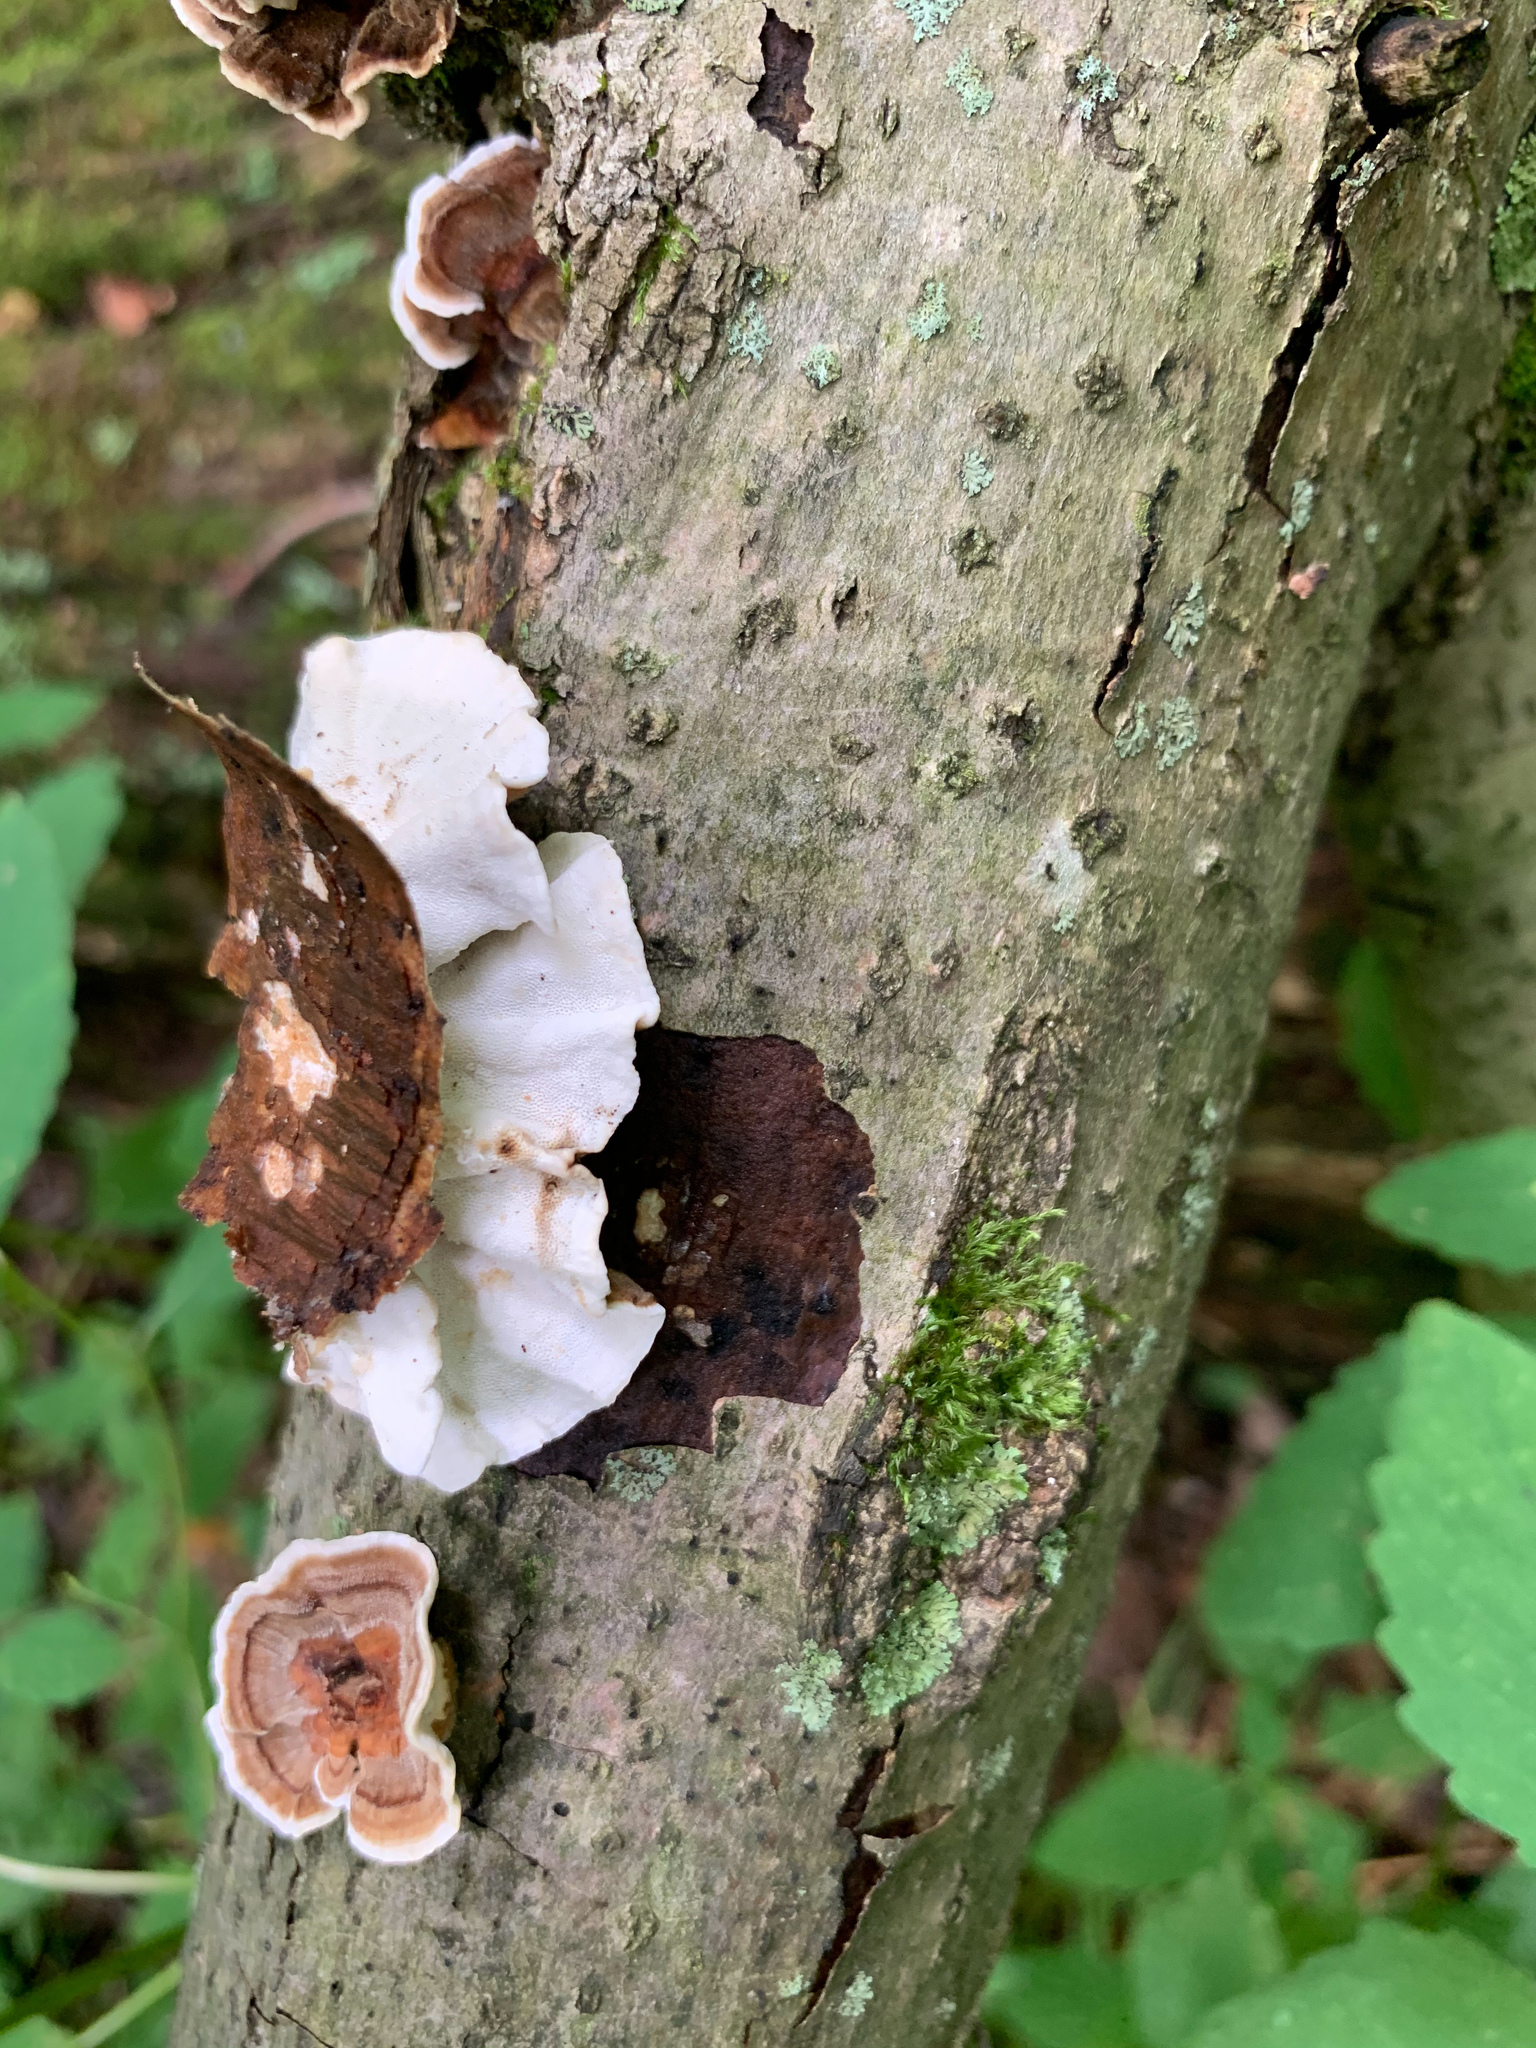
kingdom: Fungi
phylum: Basidiomycota
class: Agaricomycetes
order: Polyporales
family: Polyporaceae
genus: Trametes
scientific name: Trametes versicolor
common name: Turkeytail
